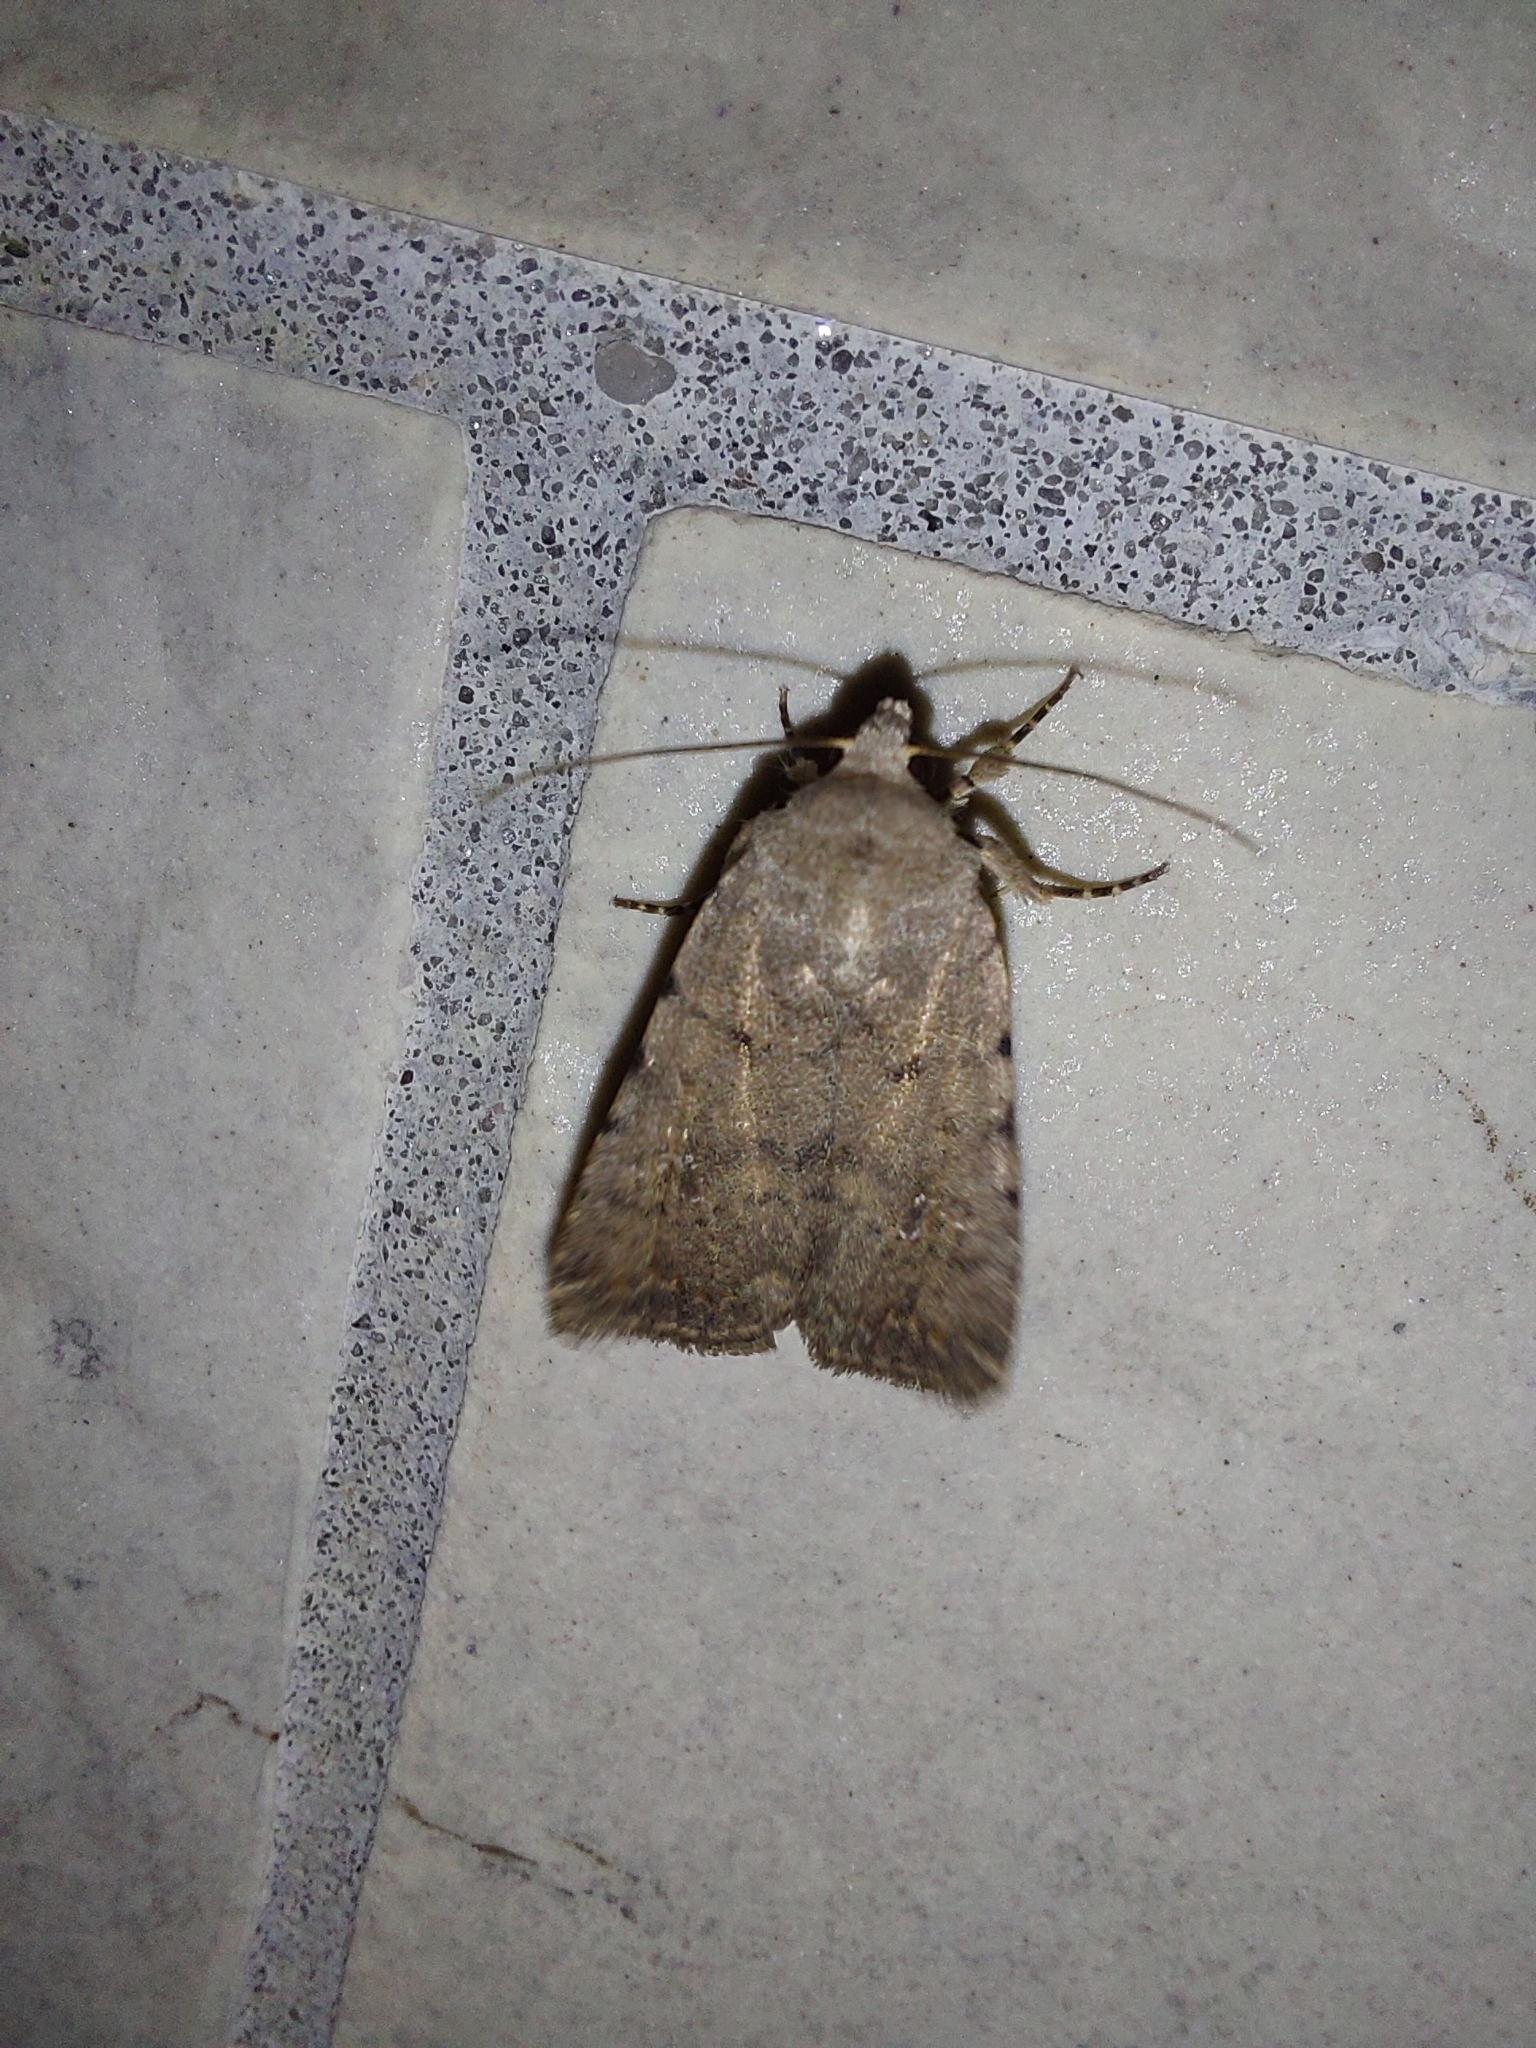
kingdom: Animalia
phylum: Arthropoda
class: Insecta
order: Lepidoptera
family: Noctuidae
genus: Caradrina
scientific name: Caradrina clavipalpis
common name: Pale mottled willow
